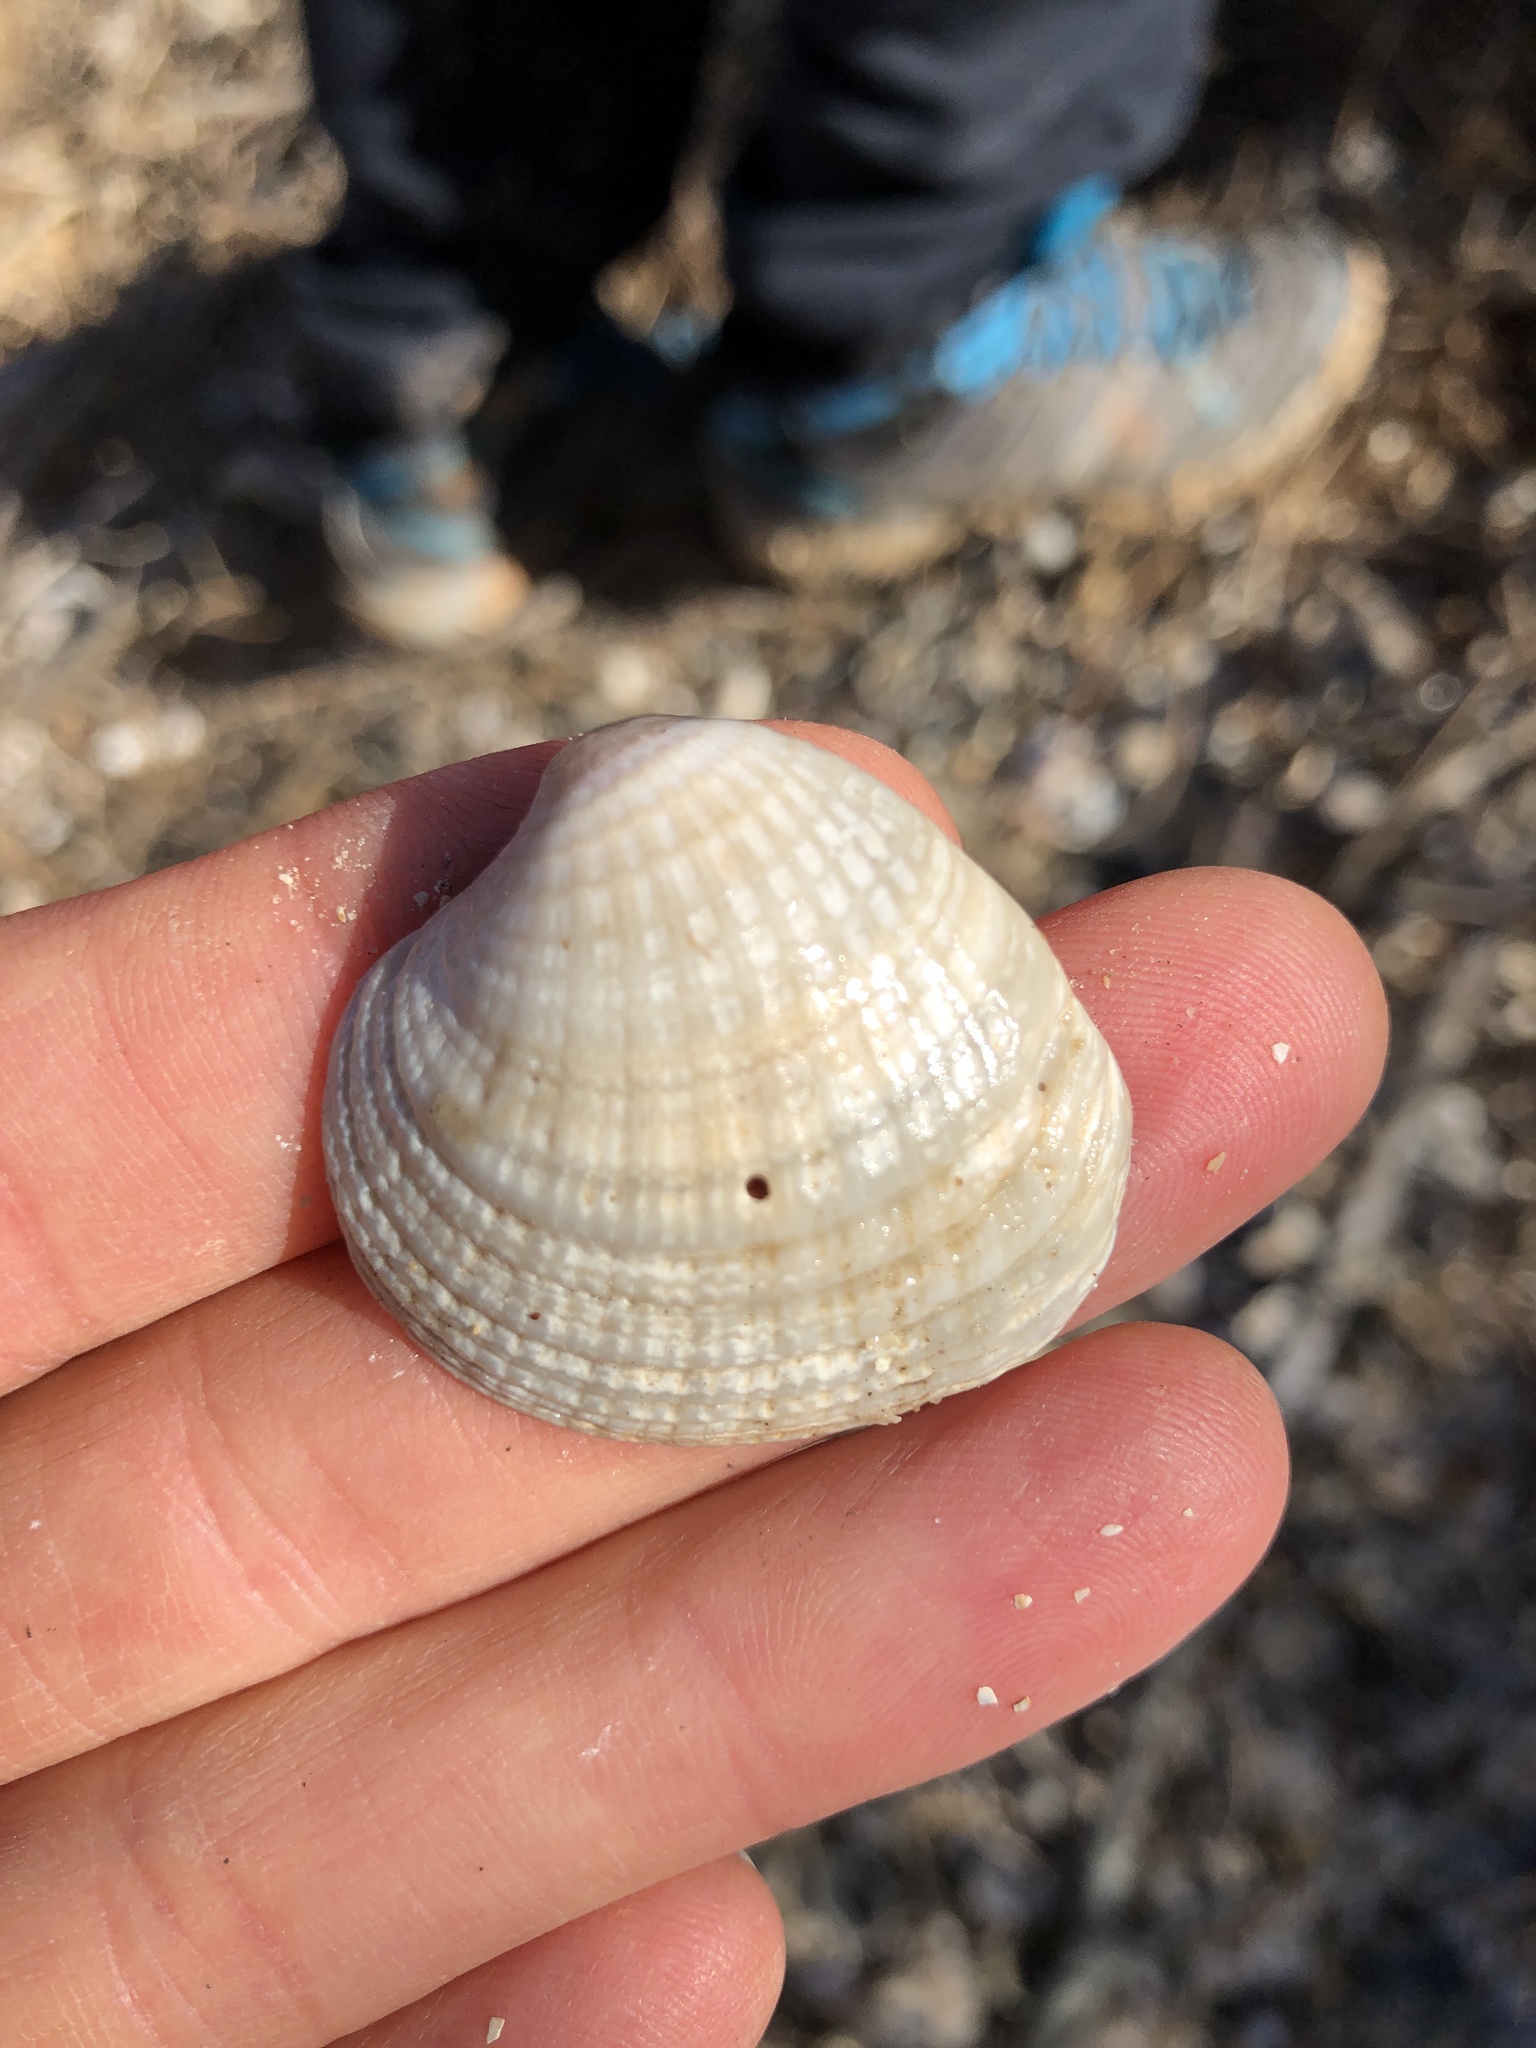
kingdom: Animalia
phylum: Mollusca
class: Bivalvia
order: Venerida
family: Veneridae
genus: Chione
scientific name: Chione elevata
